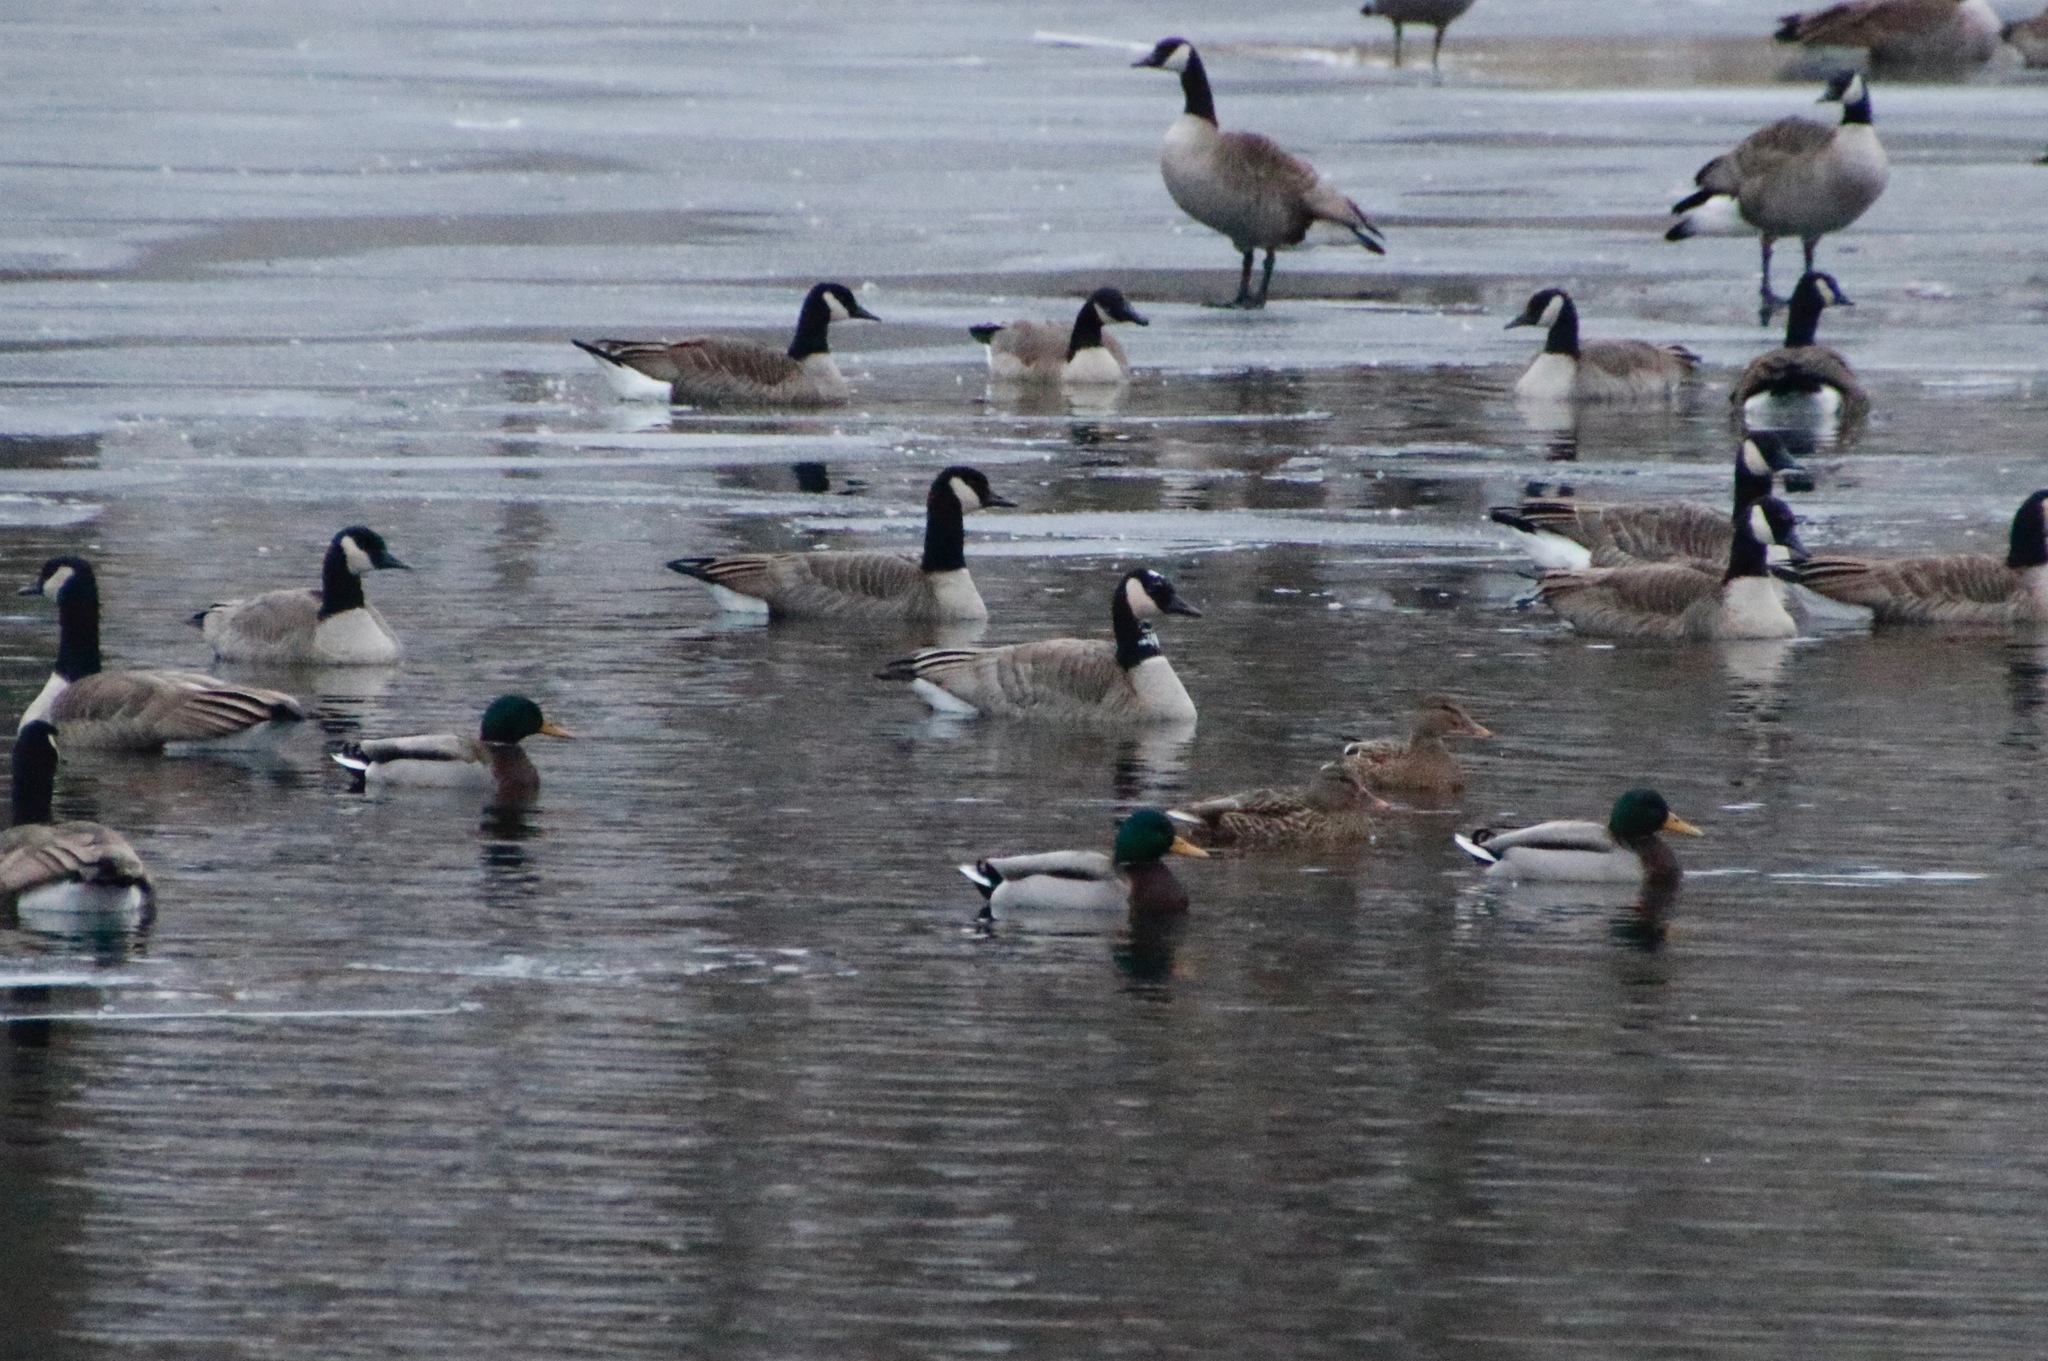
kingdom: Animalia
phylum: Chordata
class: Aves
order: Anseriformes
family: Anatidae
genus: Branta
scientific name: Branta canadensis
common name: Canada goose
